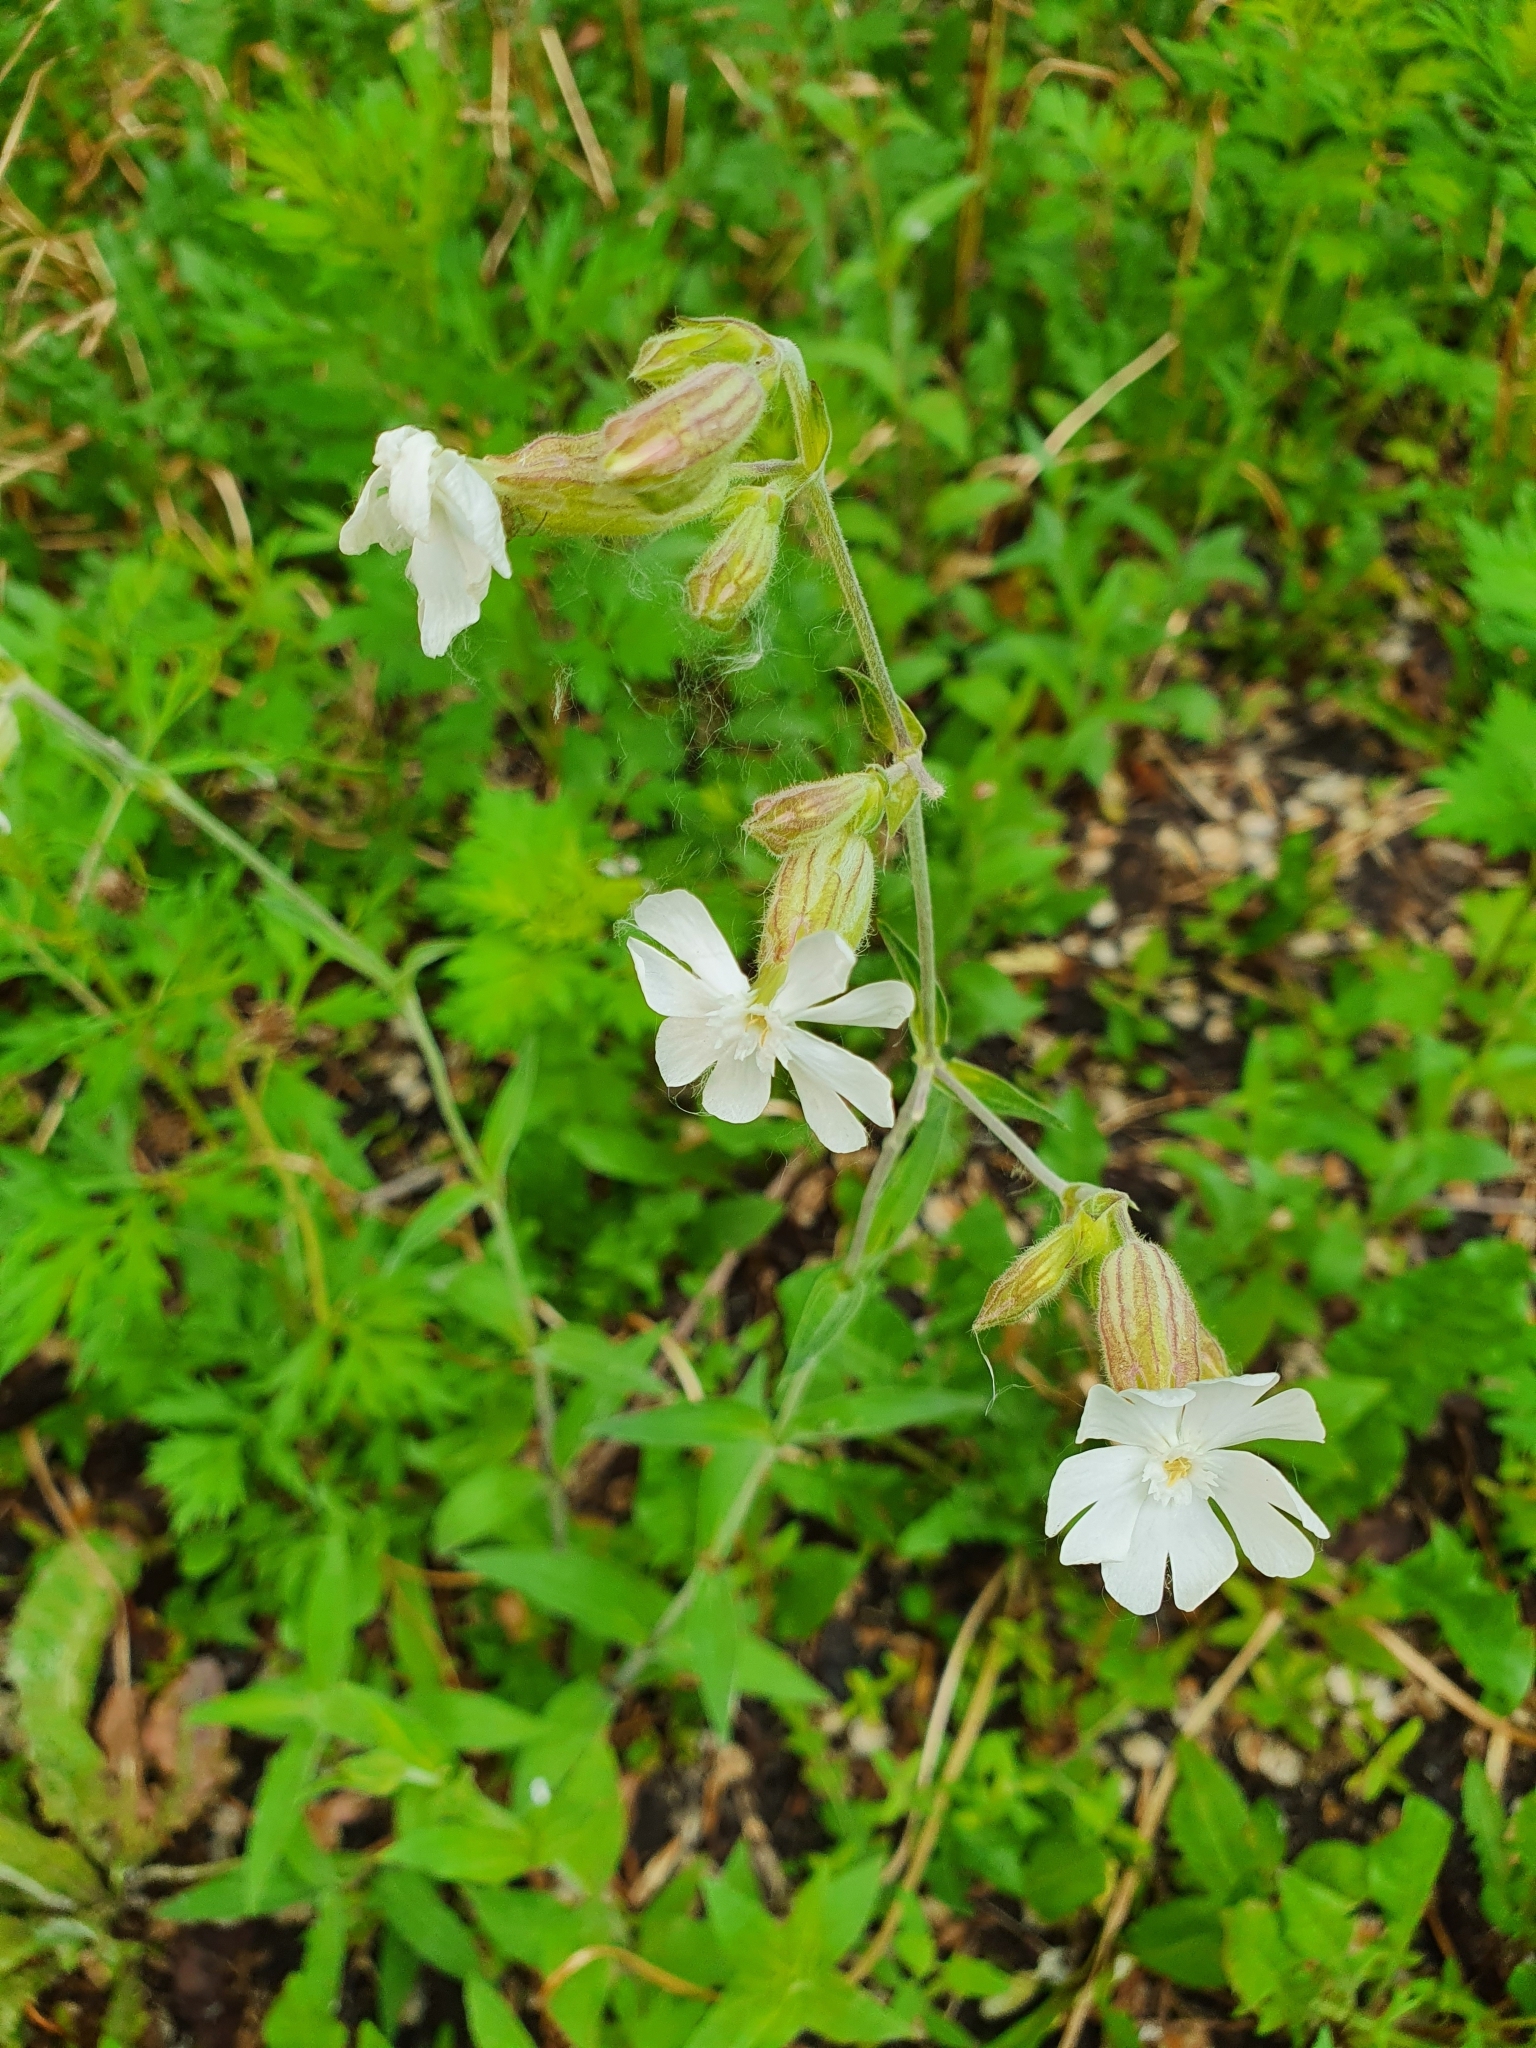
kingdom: Plantae
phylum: Tracheophyta
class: Magnoliopsida
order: Caryophyllales
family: Caryophyllaceae
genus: Silene
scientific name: Silene latifolia
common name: White campion
